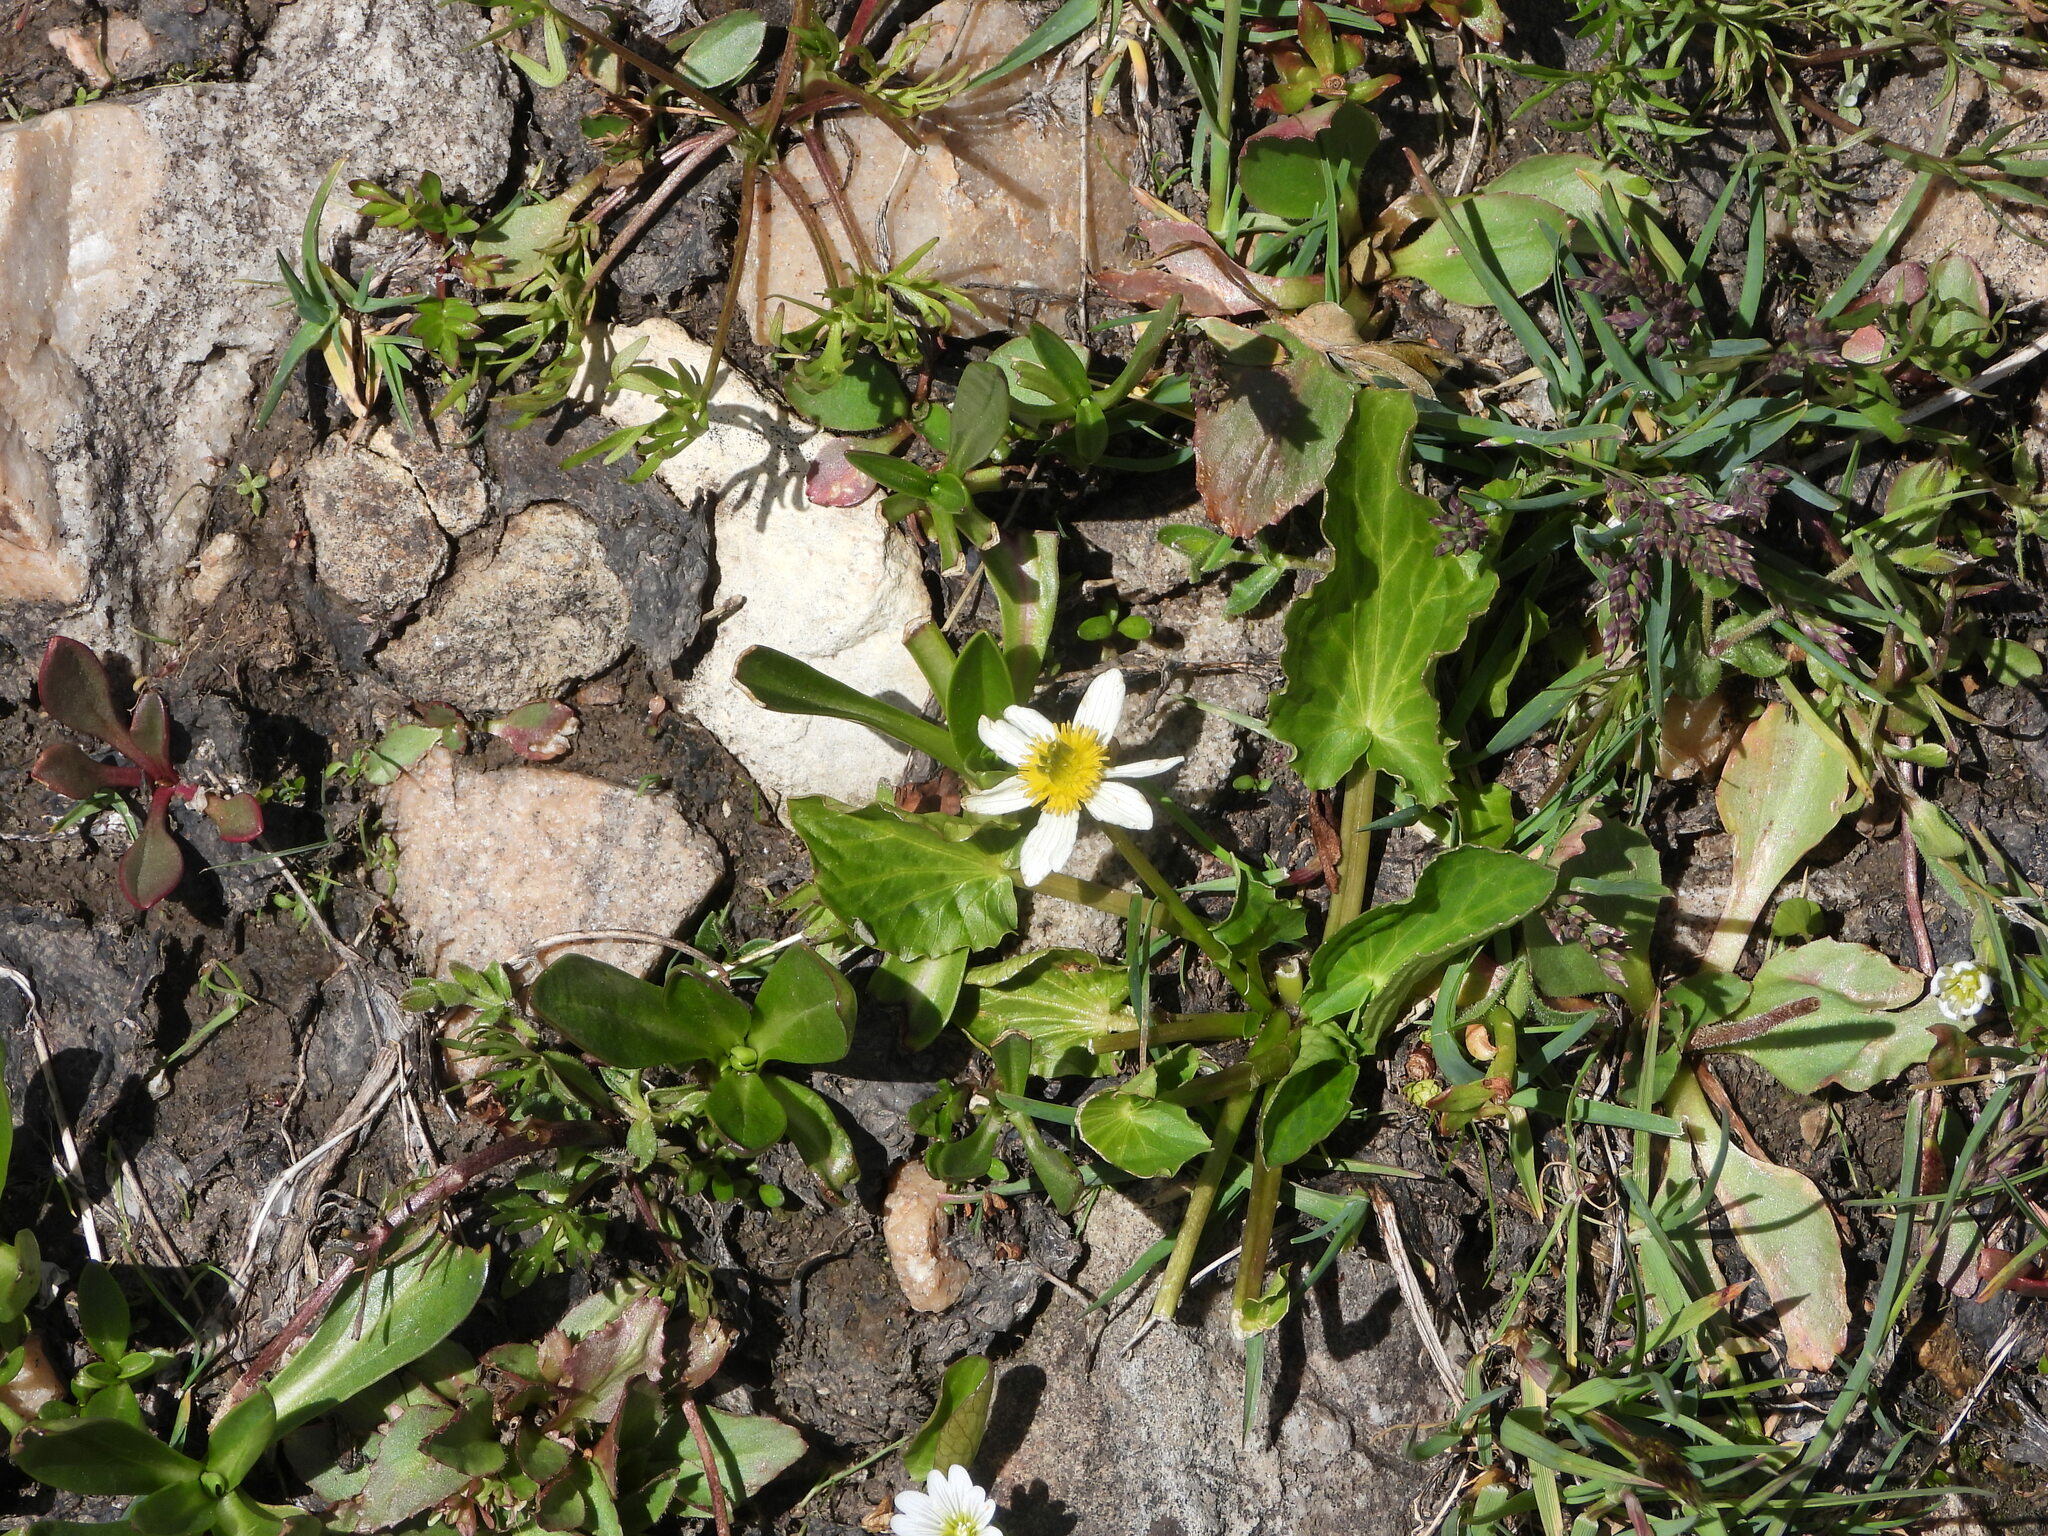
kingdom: Plantae
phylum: Tracheophyta
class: Magnoliopsida
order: Ranunculales
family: Ranunculaceae
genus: Caltha
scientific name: Caltha leptosepala
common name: Elkslip
